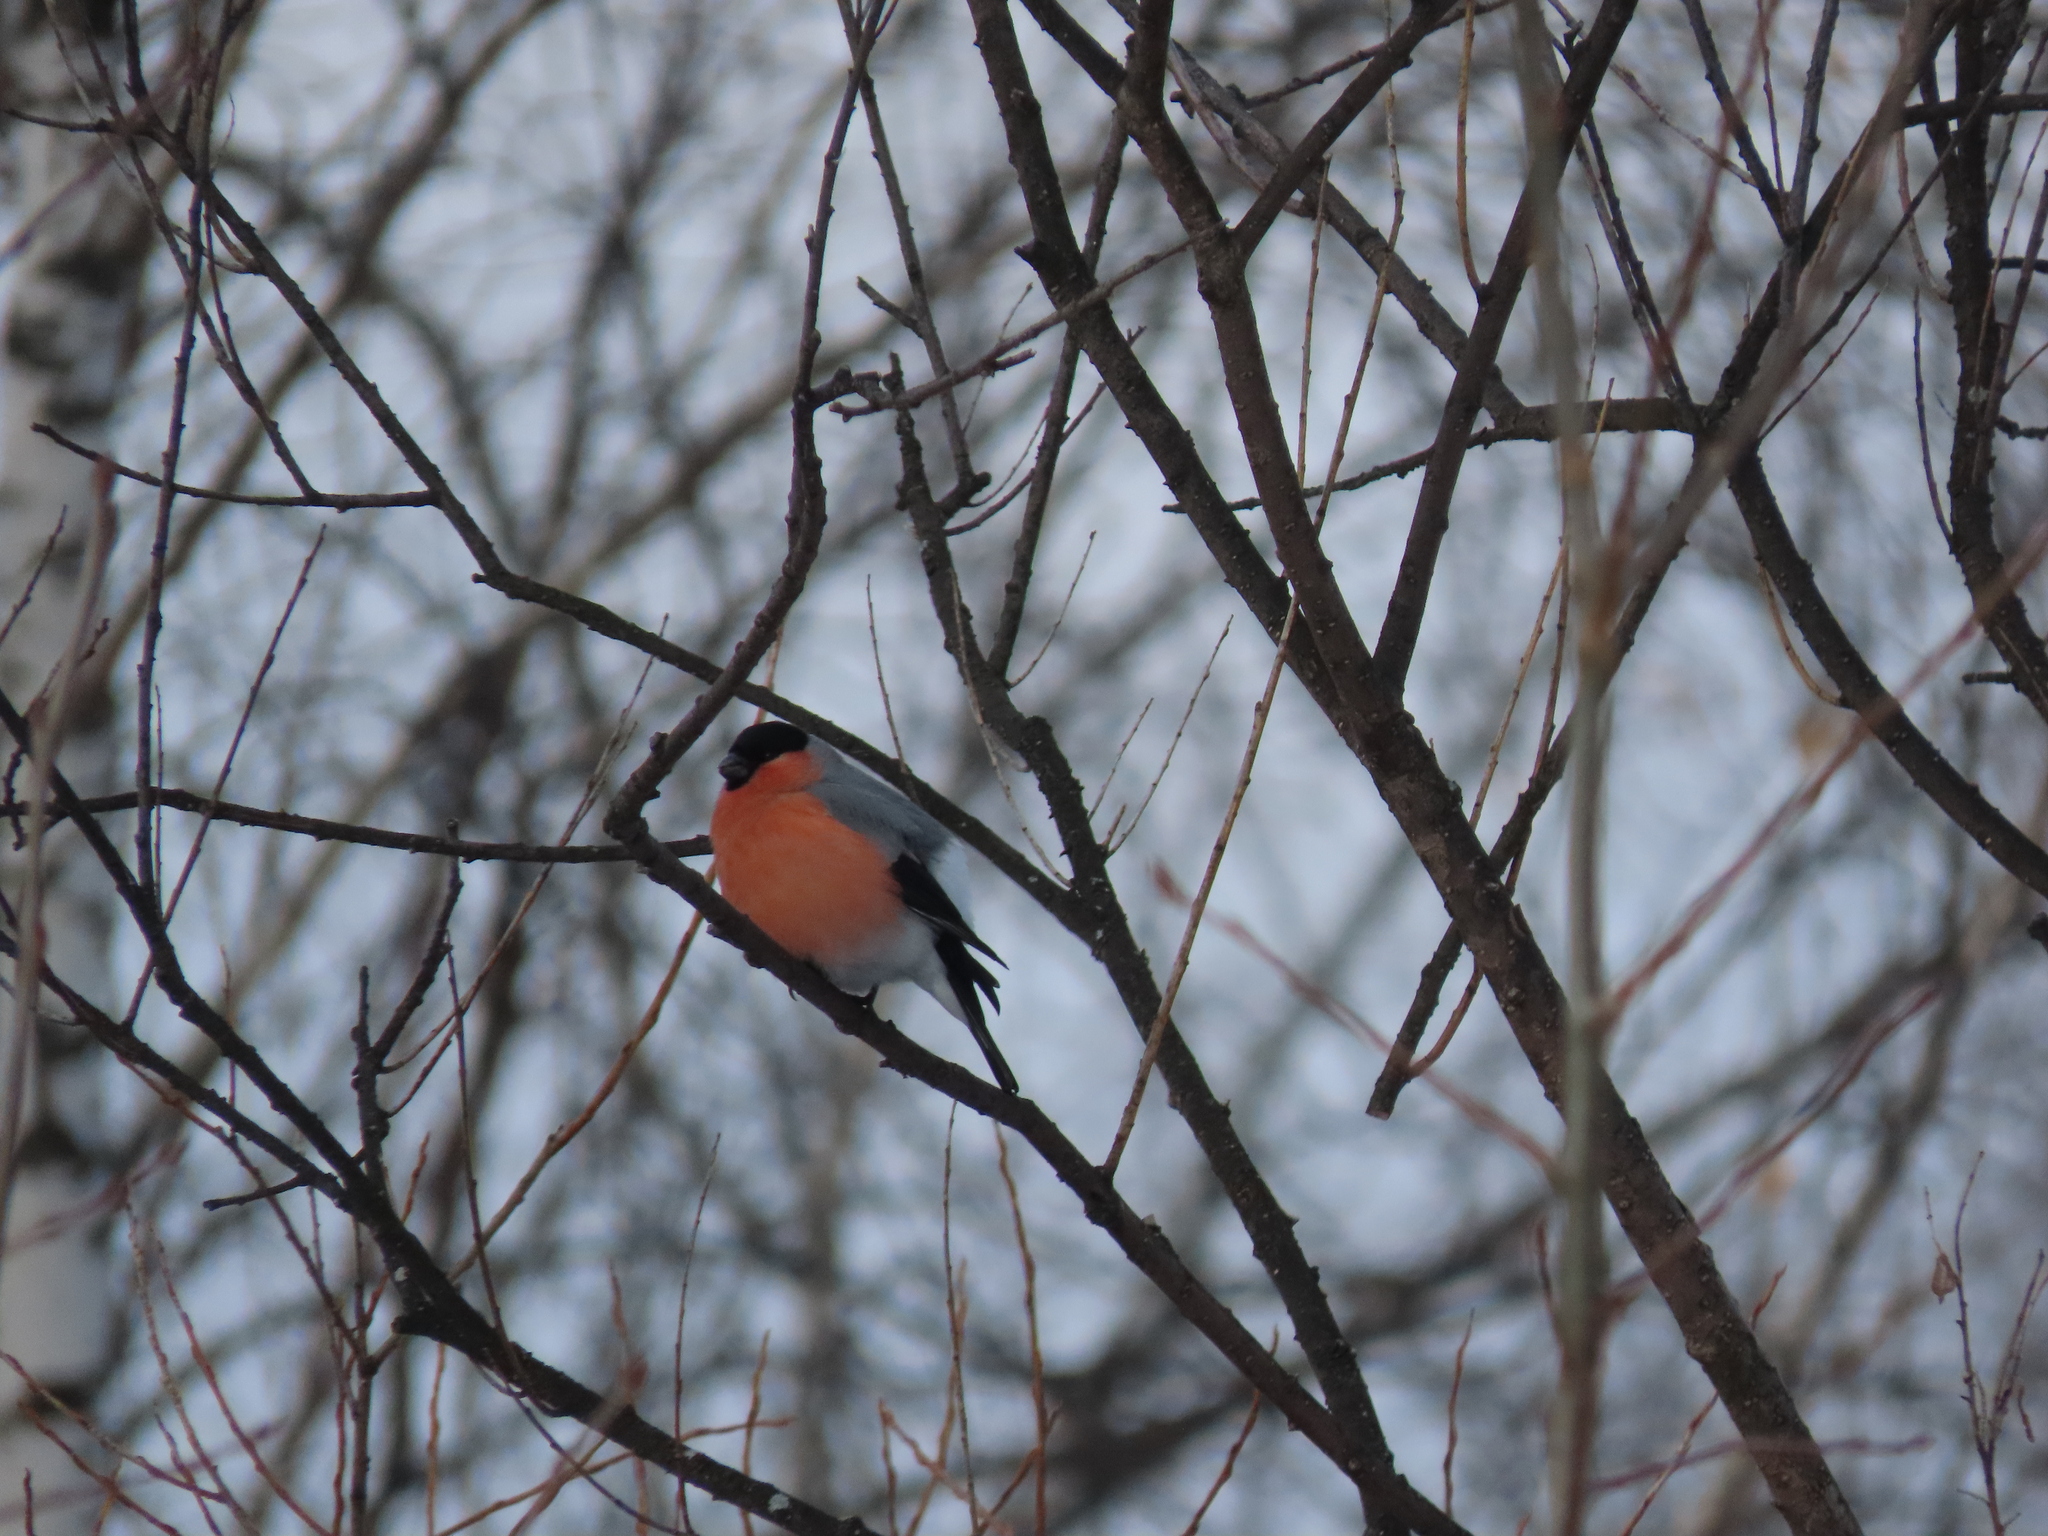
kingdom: Animalia
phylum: Chordata
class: Aves
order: Passeriformes
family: Fringillidae
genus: Pyrrhula
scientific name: Pyrrhula pyrrhula
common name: Eurasian bullfinch
